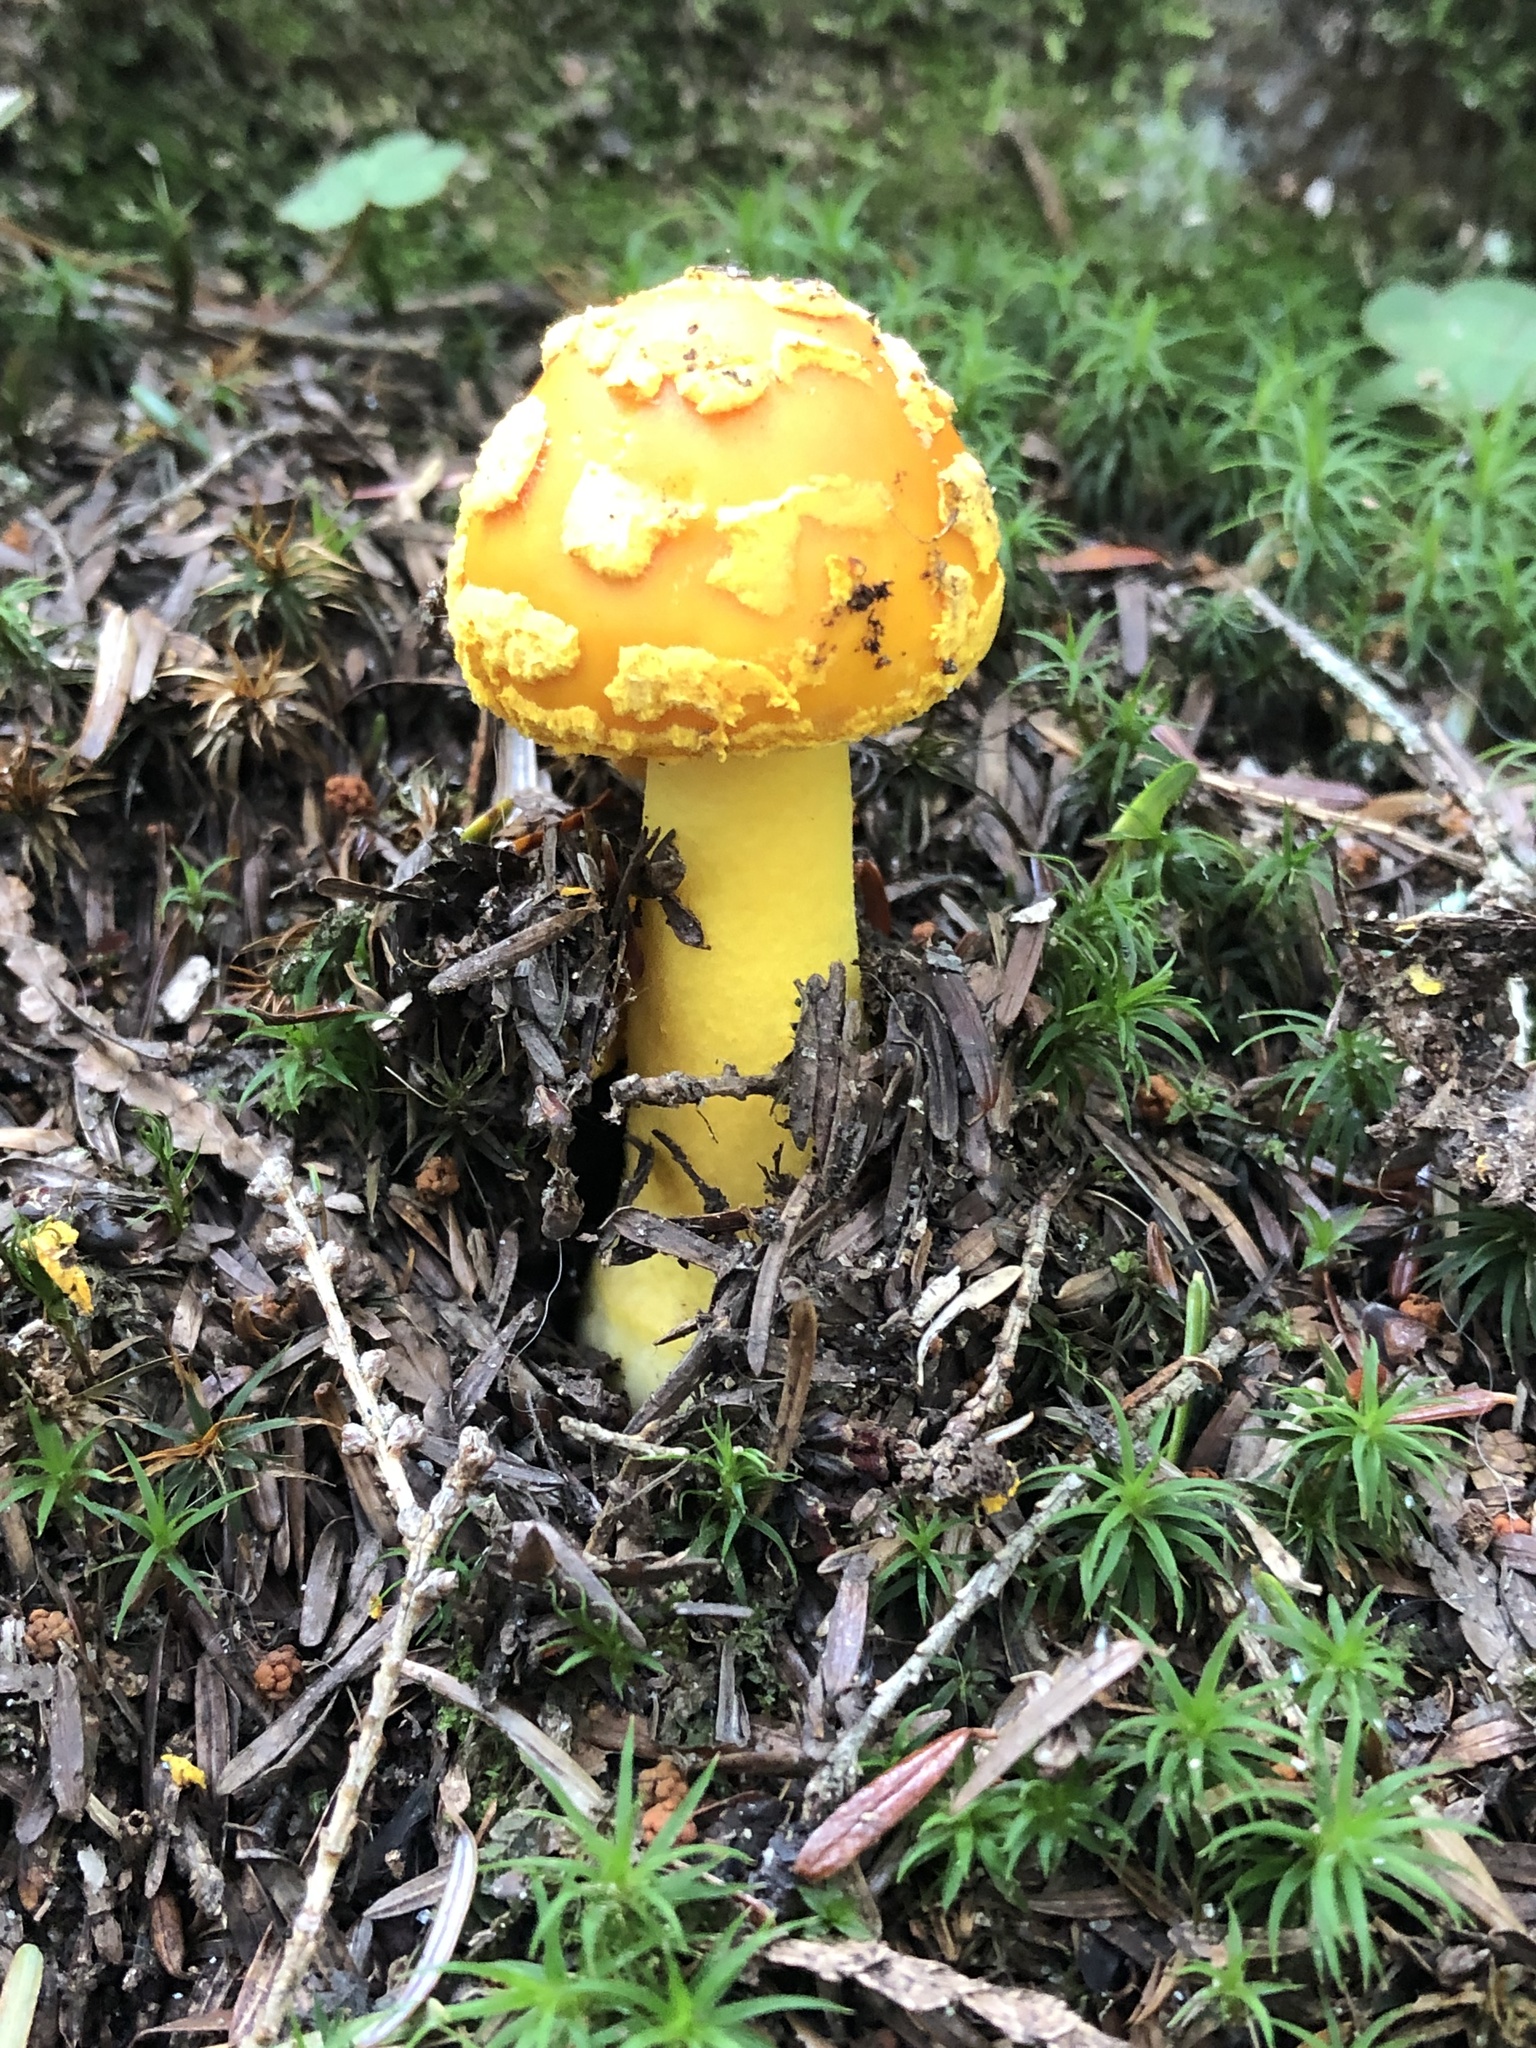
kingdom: Fungi
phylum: Basidiomycota
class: Agaricomycetes
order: Agaricales
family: Amanitaceae
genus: Amanita
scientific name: Amanita flavoconia
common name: Yellow patches
